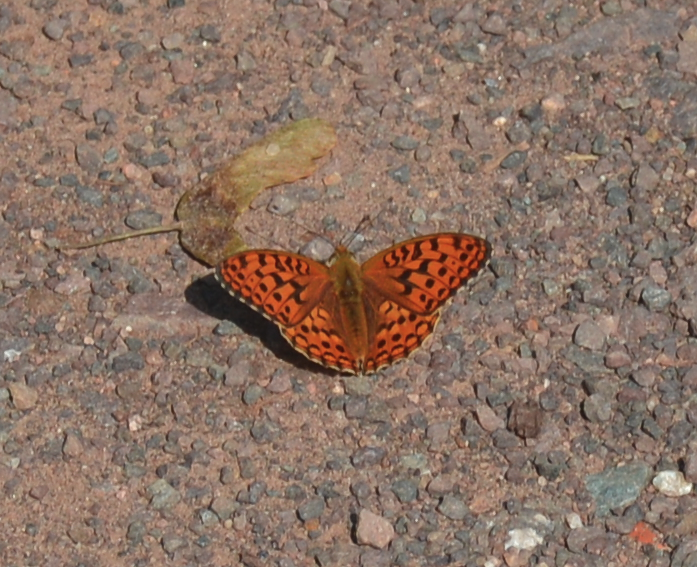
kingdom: Animalia
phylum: Arthropoda
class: Insecta
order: Lepidoptera
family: Nymphalidae
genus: Fabriciana
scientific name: Fabriciana adippe
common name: High brown fritillary
